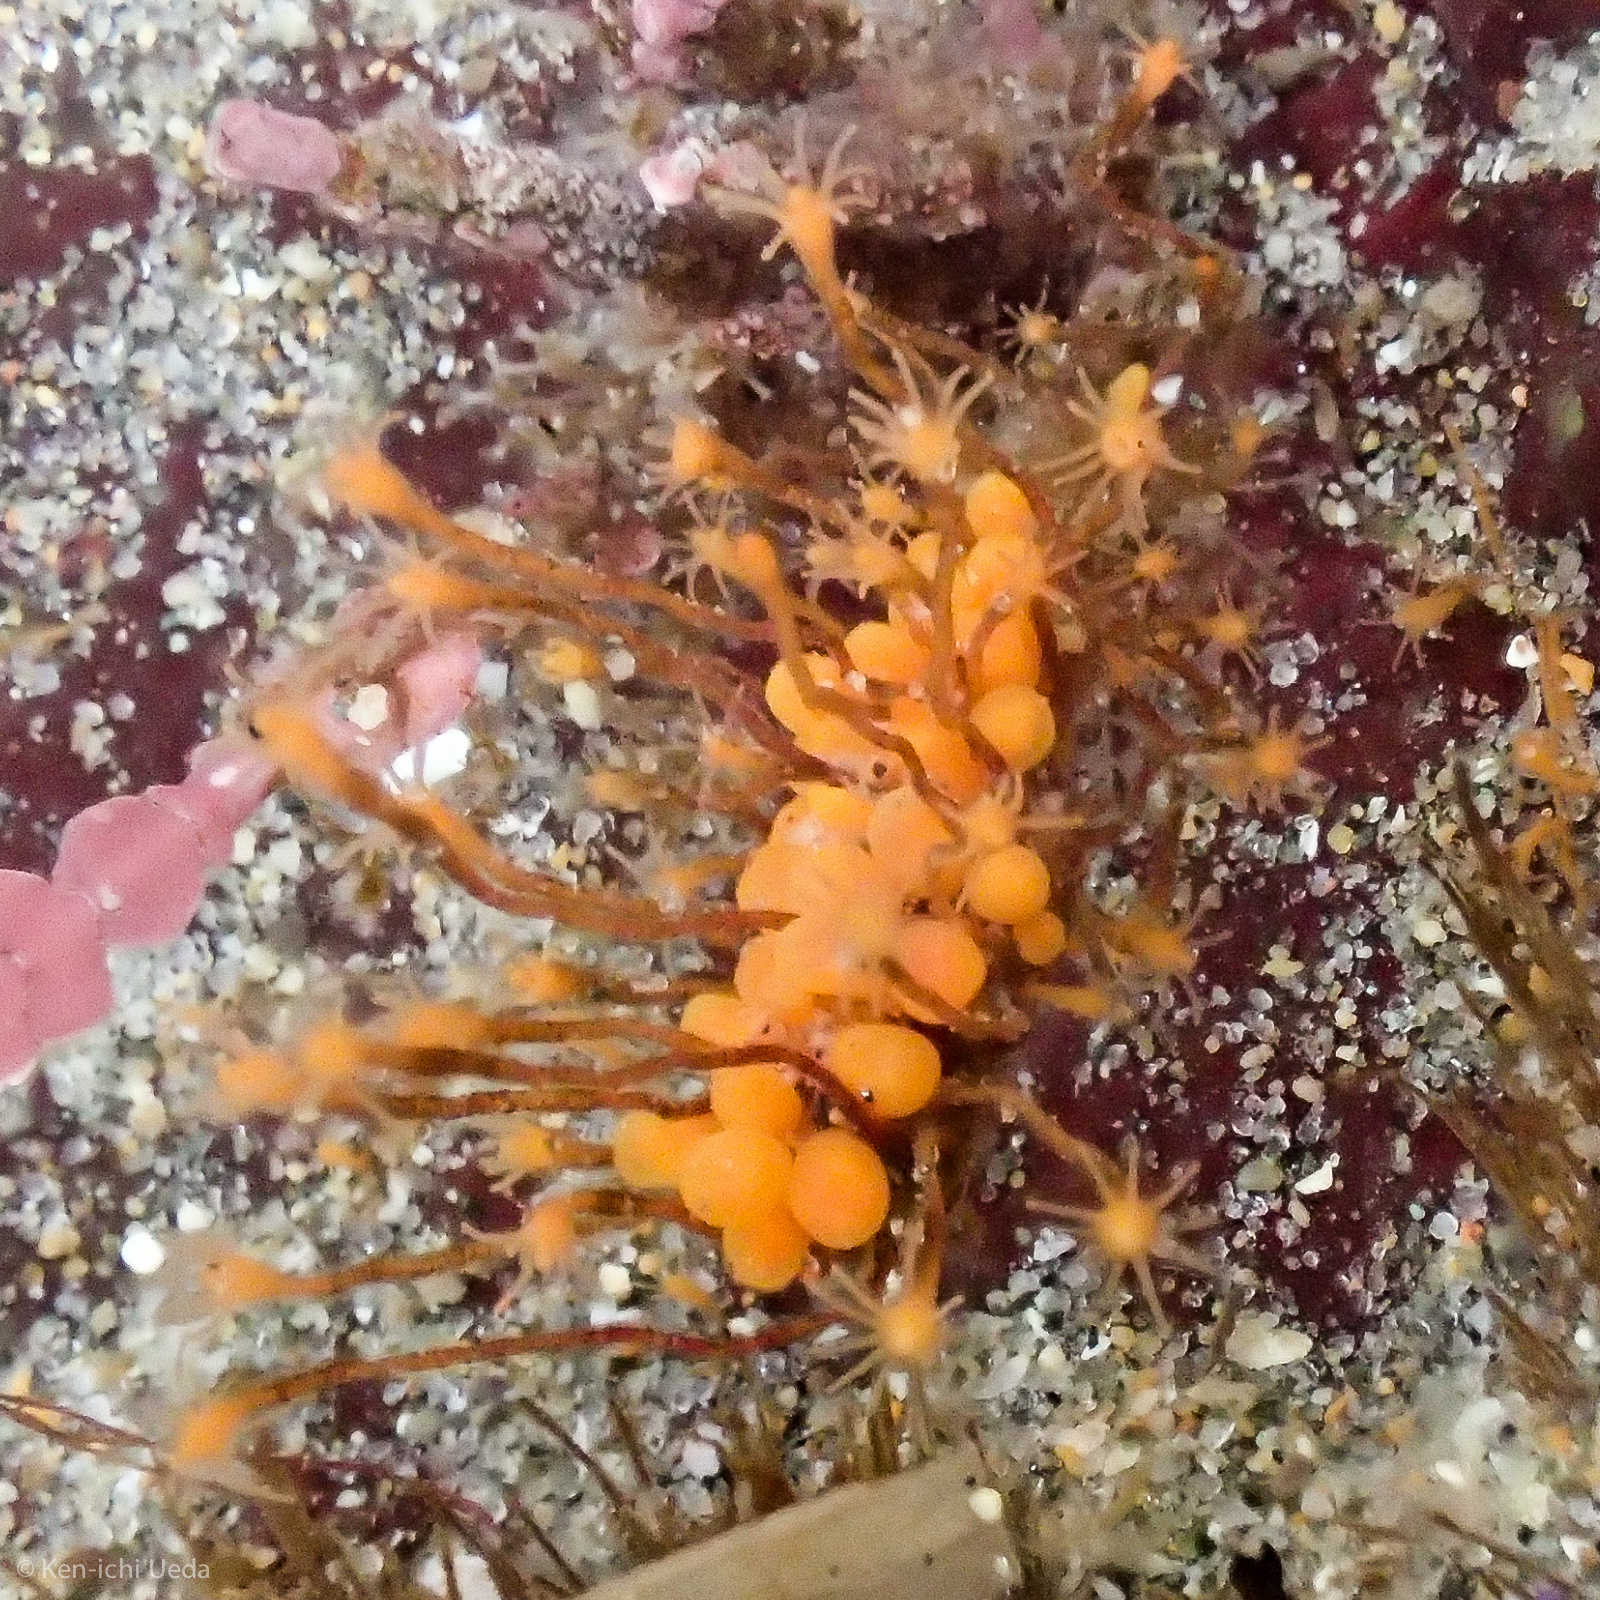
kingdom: Animalia
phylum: Cnidaria
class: Hydrozoa
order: Anthoathecata
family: Bougainvilliidae
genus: Garveia
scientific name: Garveia annulata
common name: Orange hydroid
